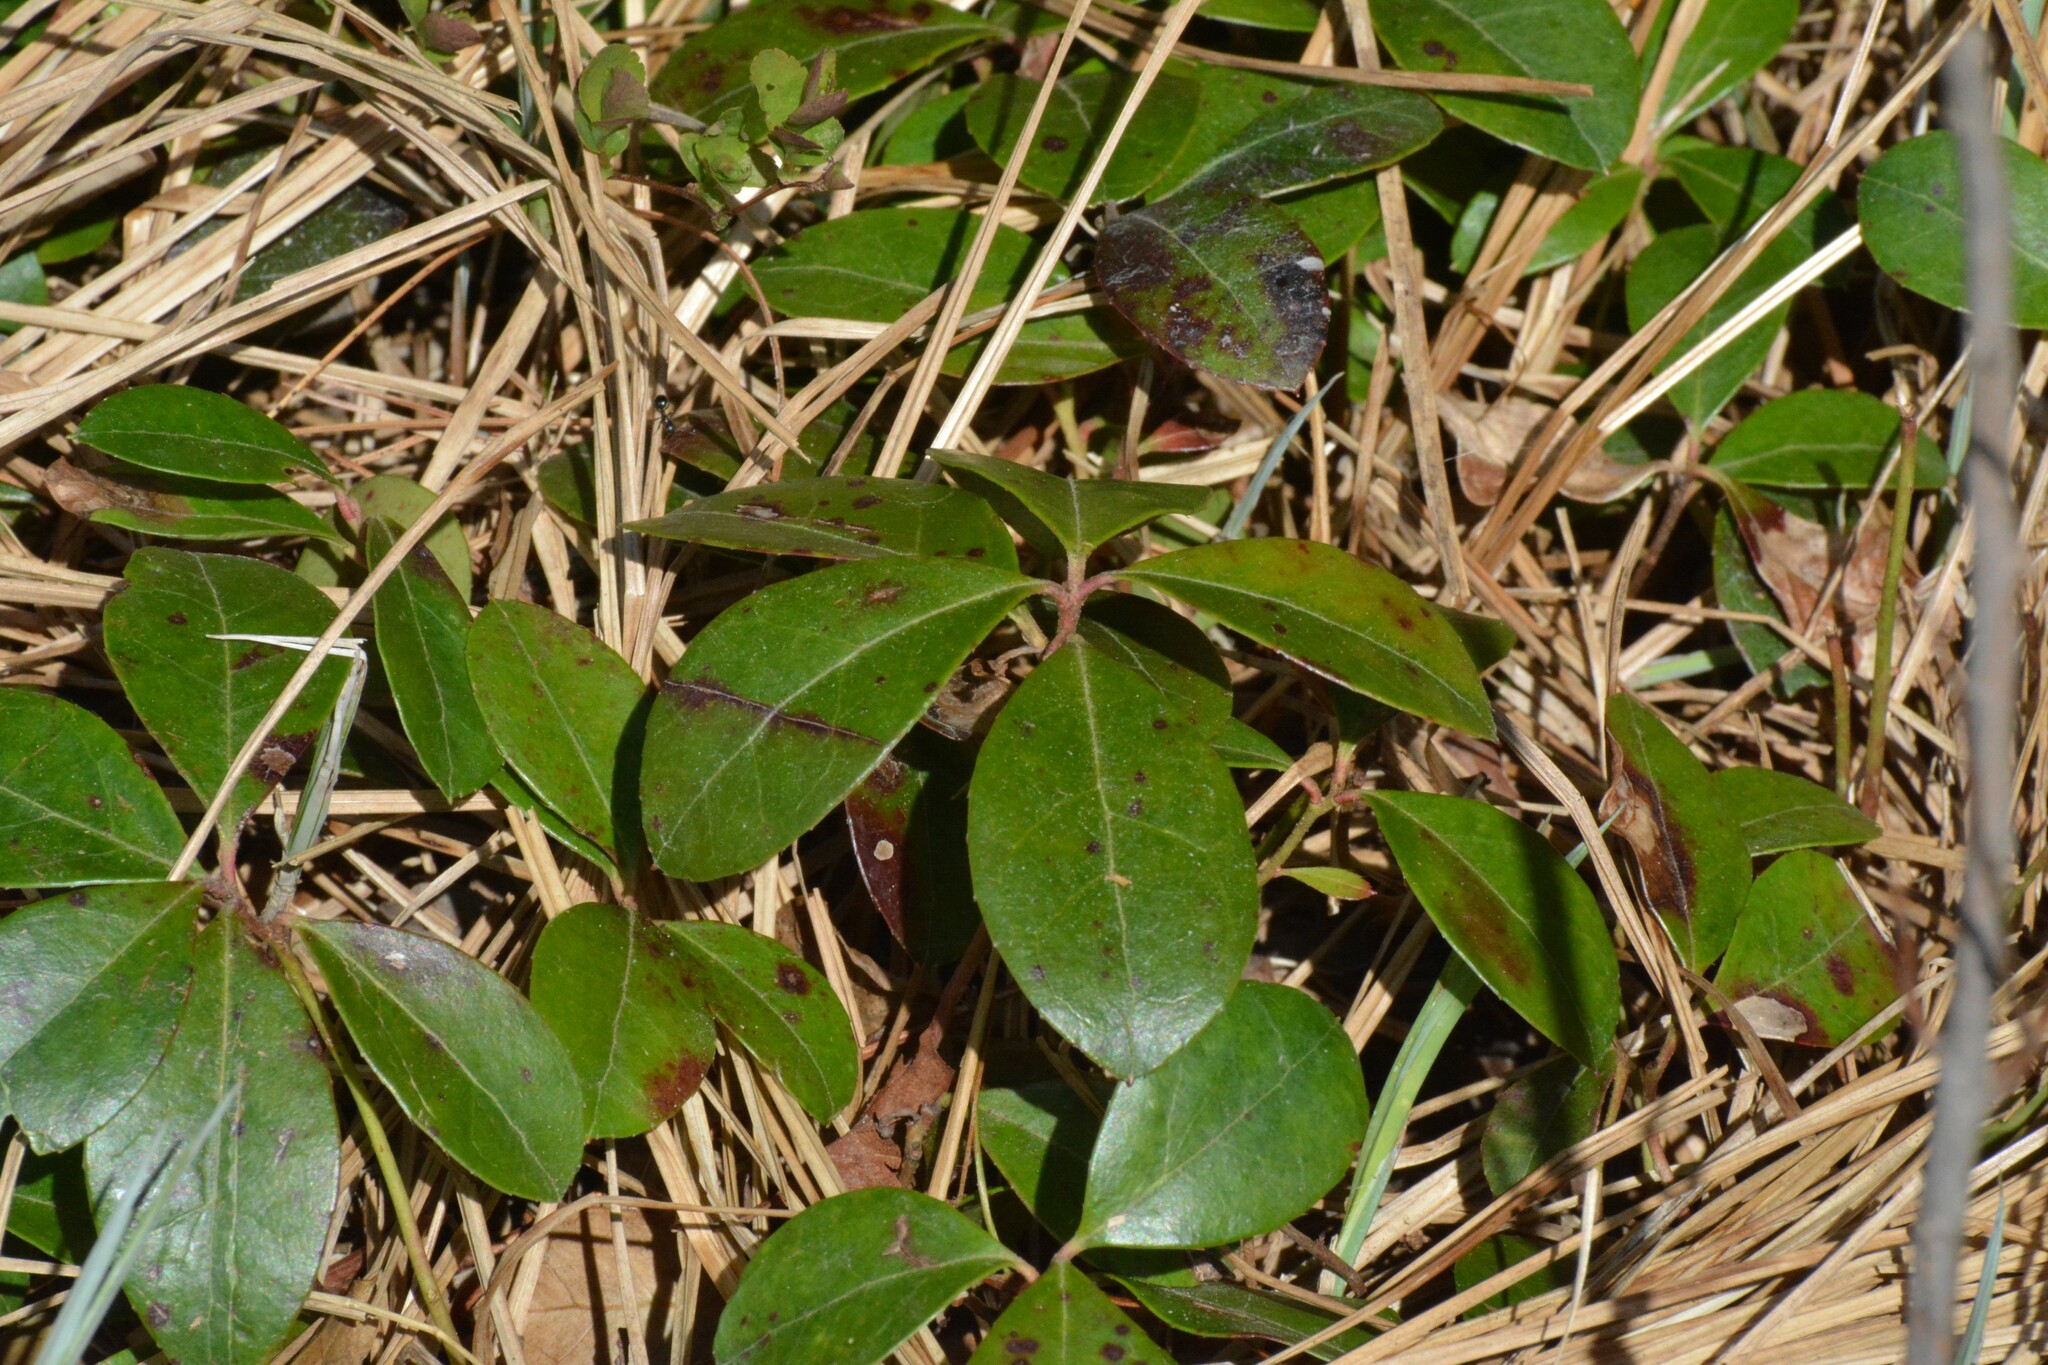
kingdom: Plantae
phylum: Tracheophyta
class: Magnoliopsida
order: Ericales
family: Ericaceae
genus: Gaultheria
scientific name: Gaultheria procumbens
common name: Checkerberry
